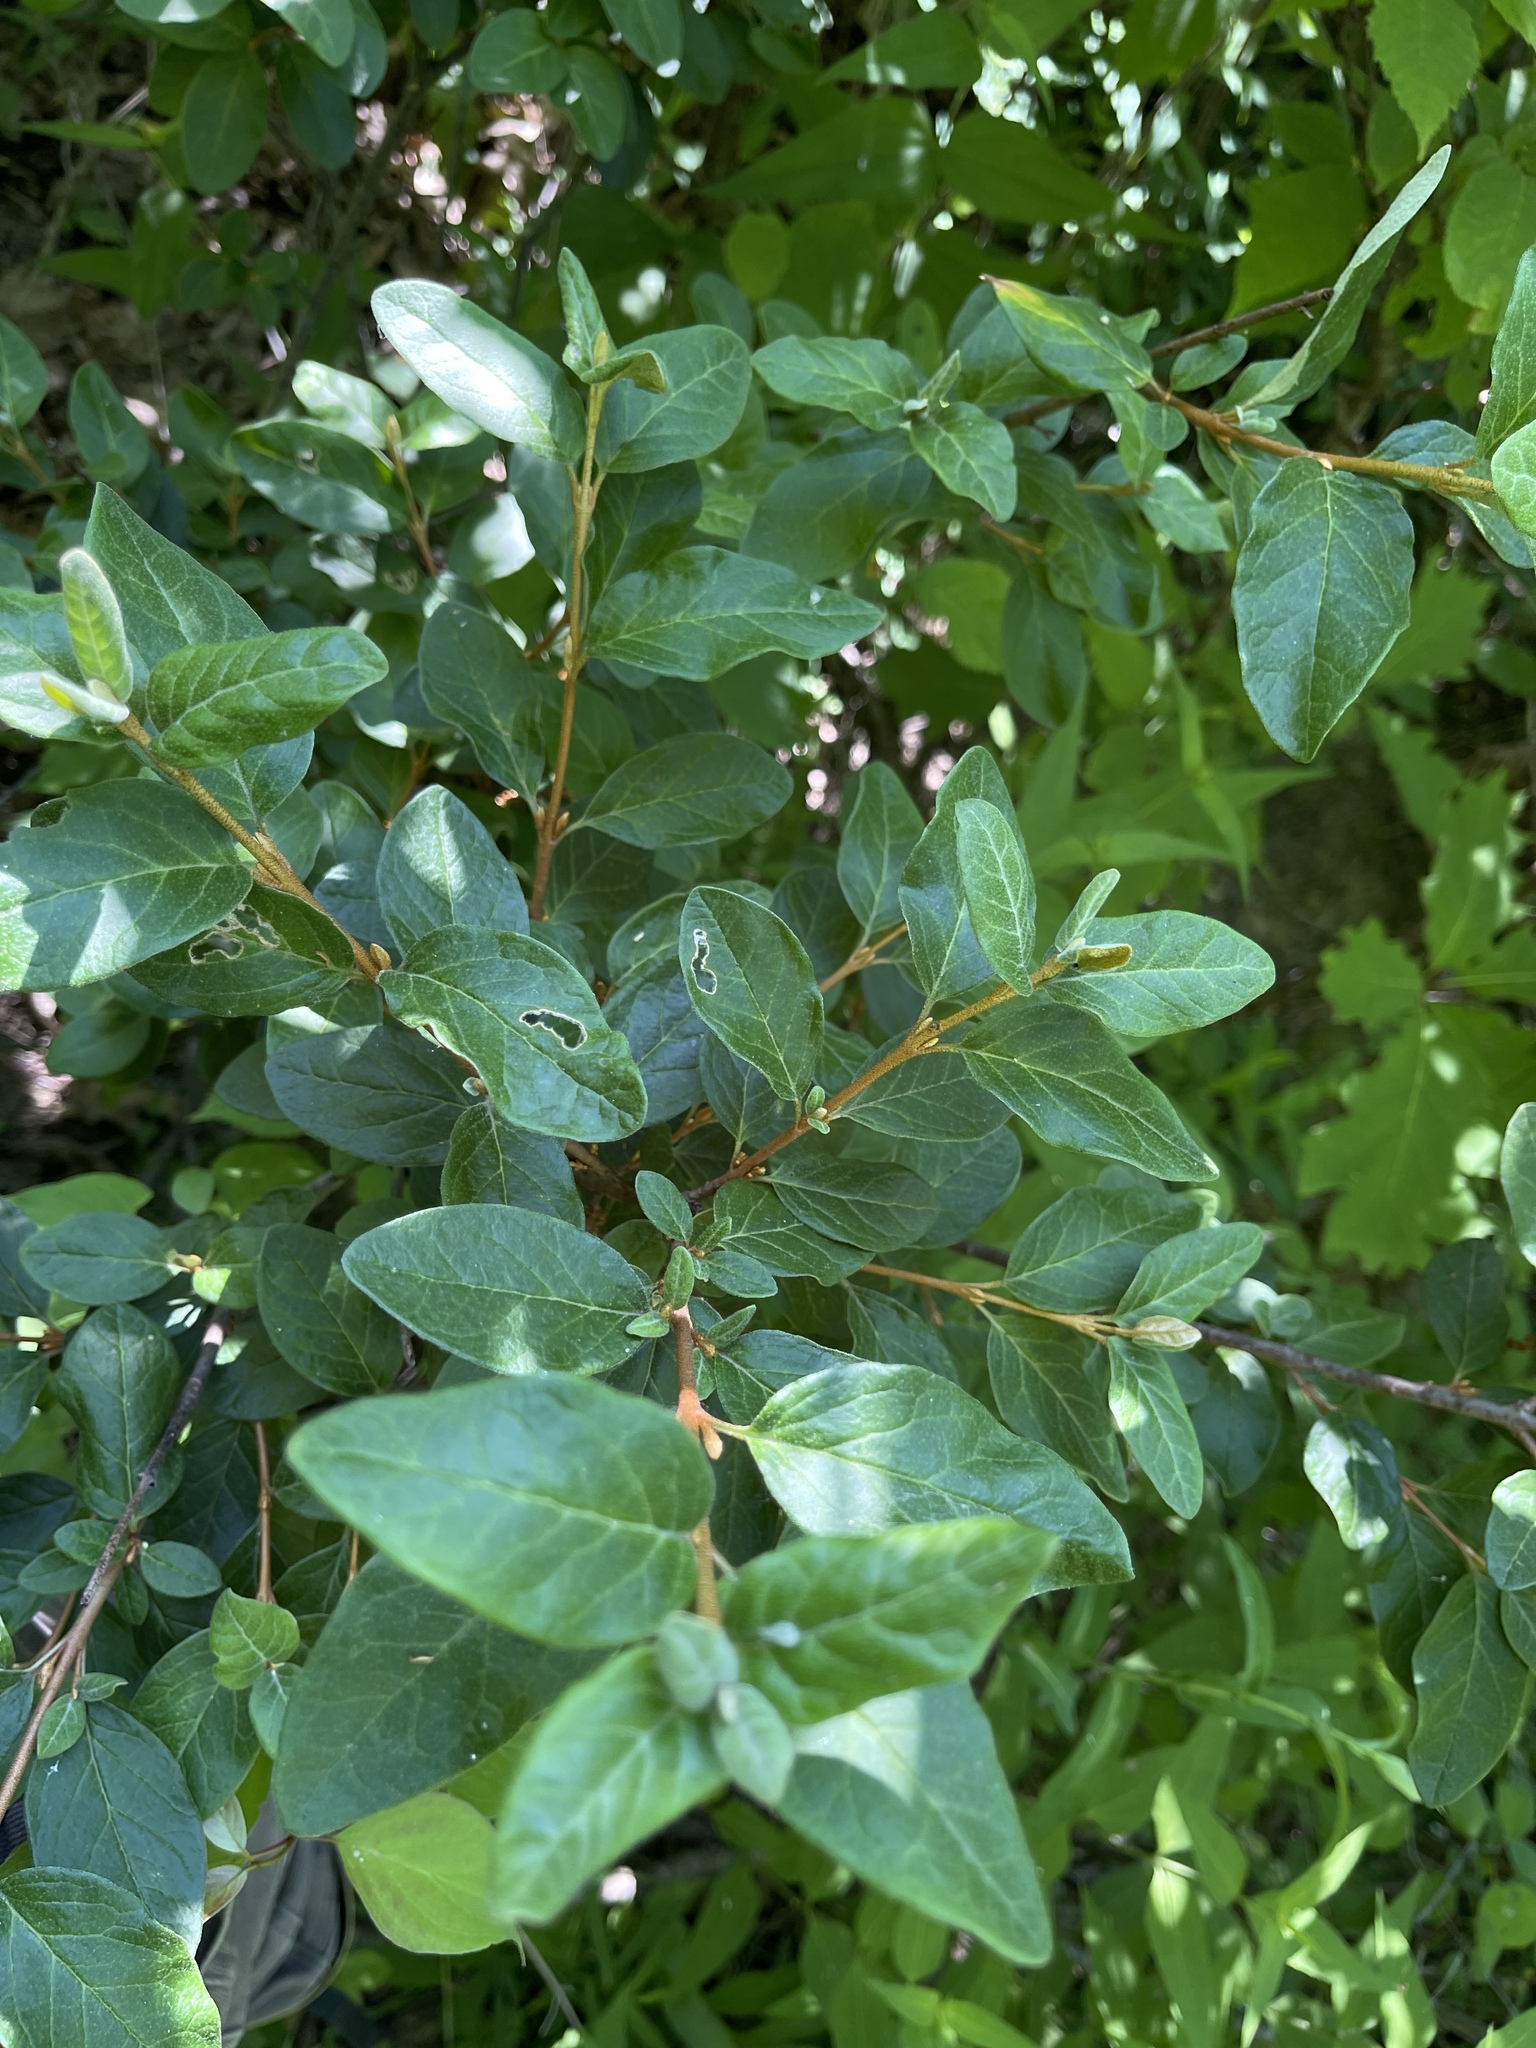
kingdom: Plantae
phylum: Tracheophyta
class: Magnoliopsida
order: Rosales
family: Elaeagnaceae
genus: Shepherdia
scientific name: Shepherdia canadensis
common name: Soapberry
